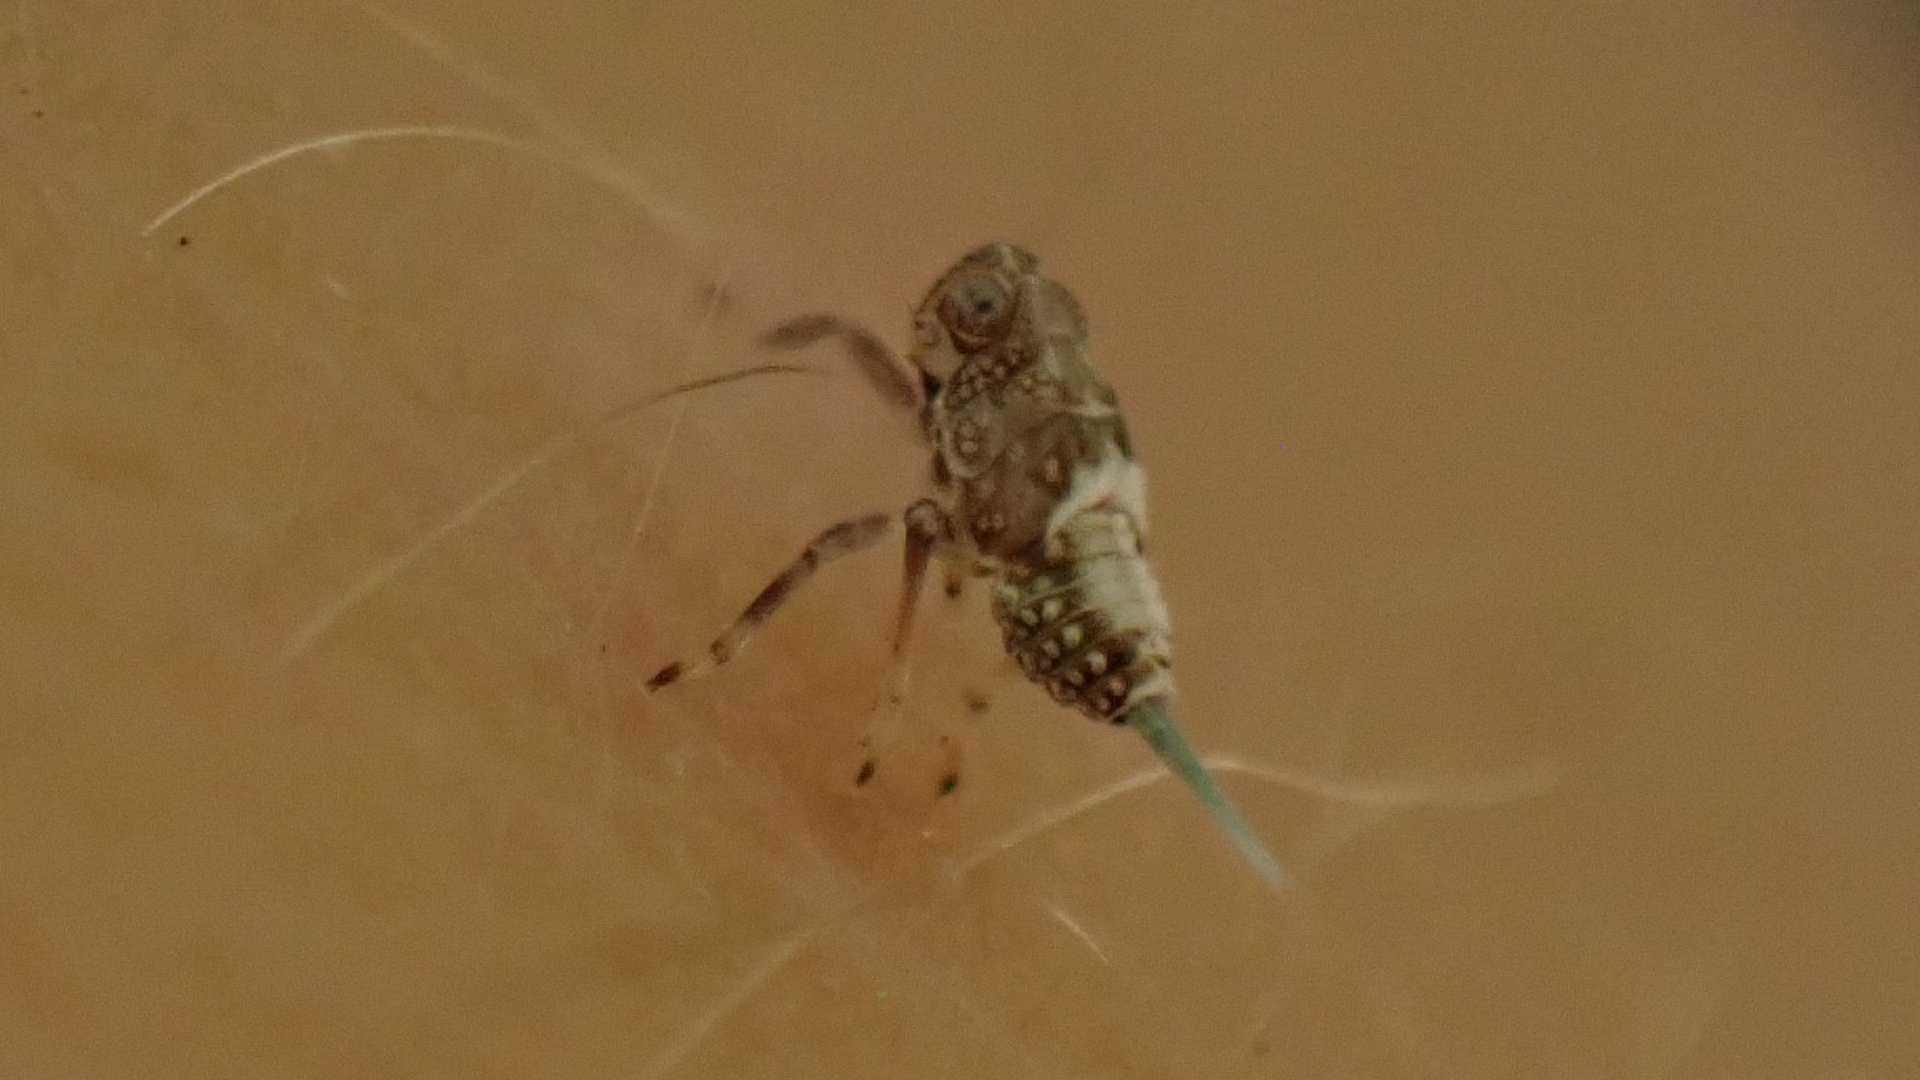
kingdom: Animalia
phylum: Arthropoda
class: Insecta
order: Hemiptera
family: Issidae
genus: Issus
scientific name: Issus coleoptratus
